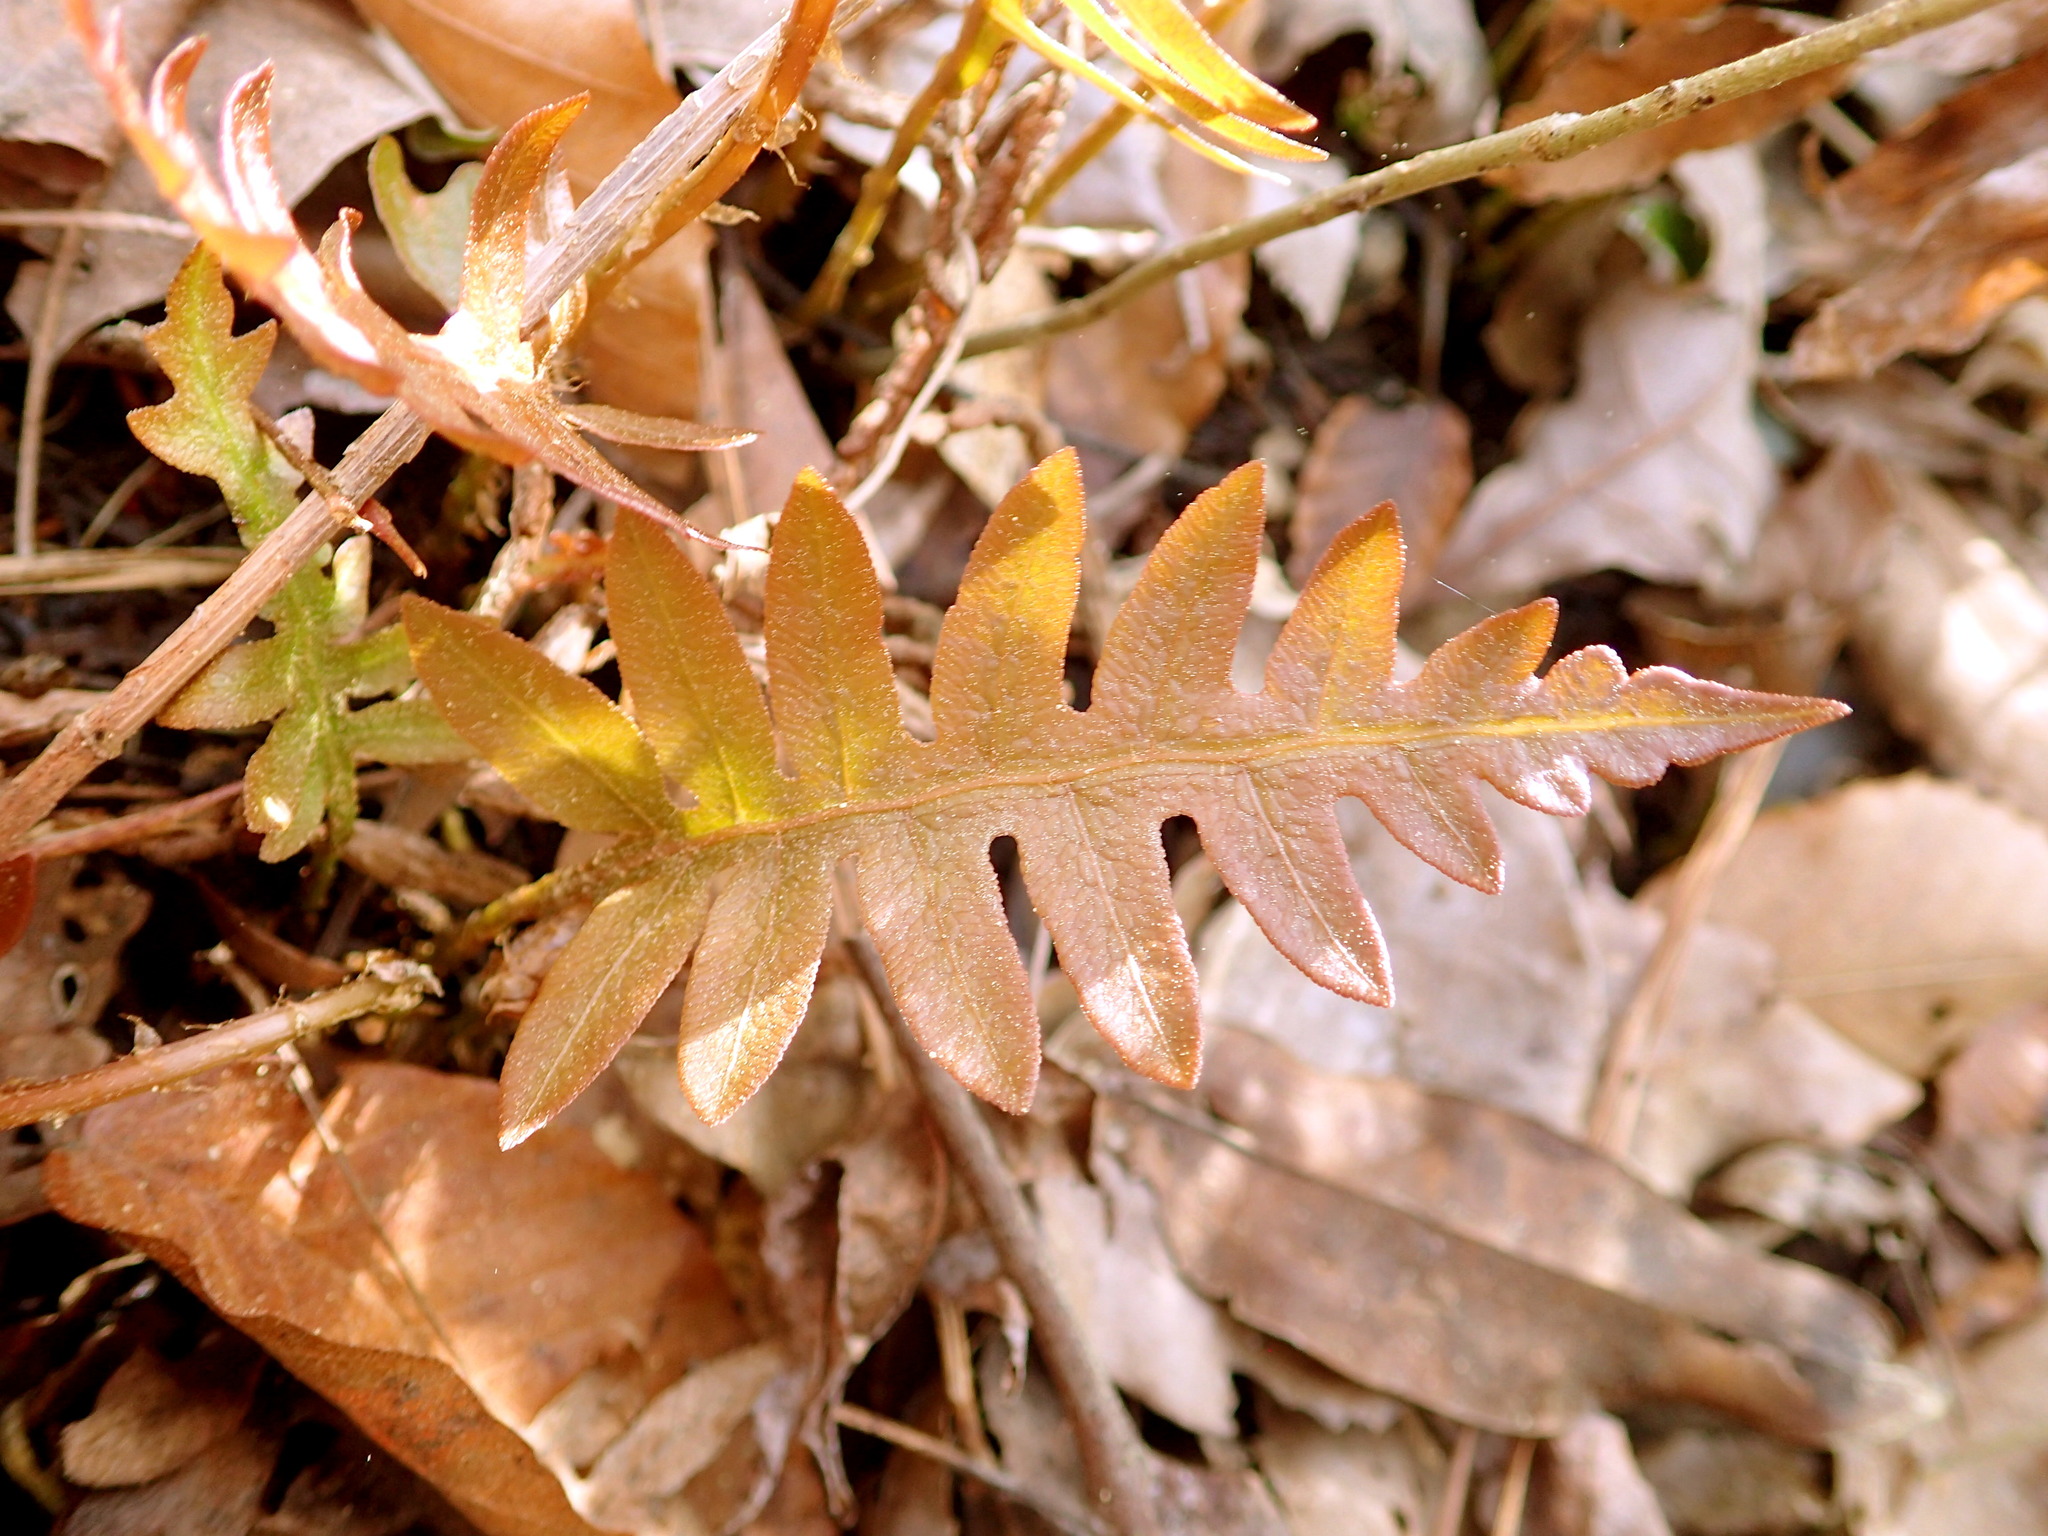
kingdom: Plantae
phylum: Tracheophyta
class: Polypodiopsida
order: Polypodiales
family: Blechnaceae
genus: Lorinseria
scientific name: Lorinseria areolata
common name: Dwarf chain fern
